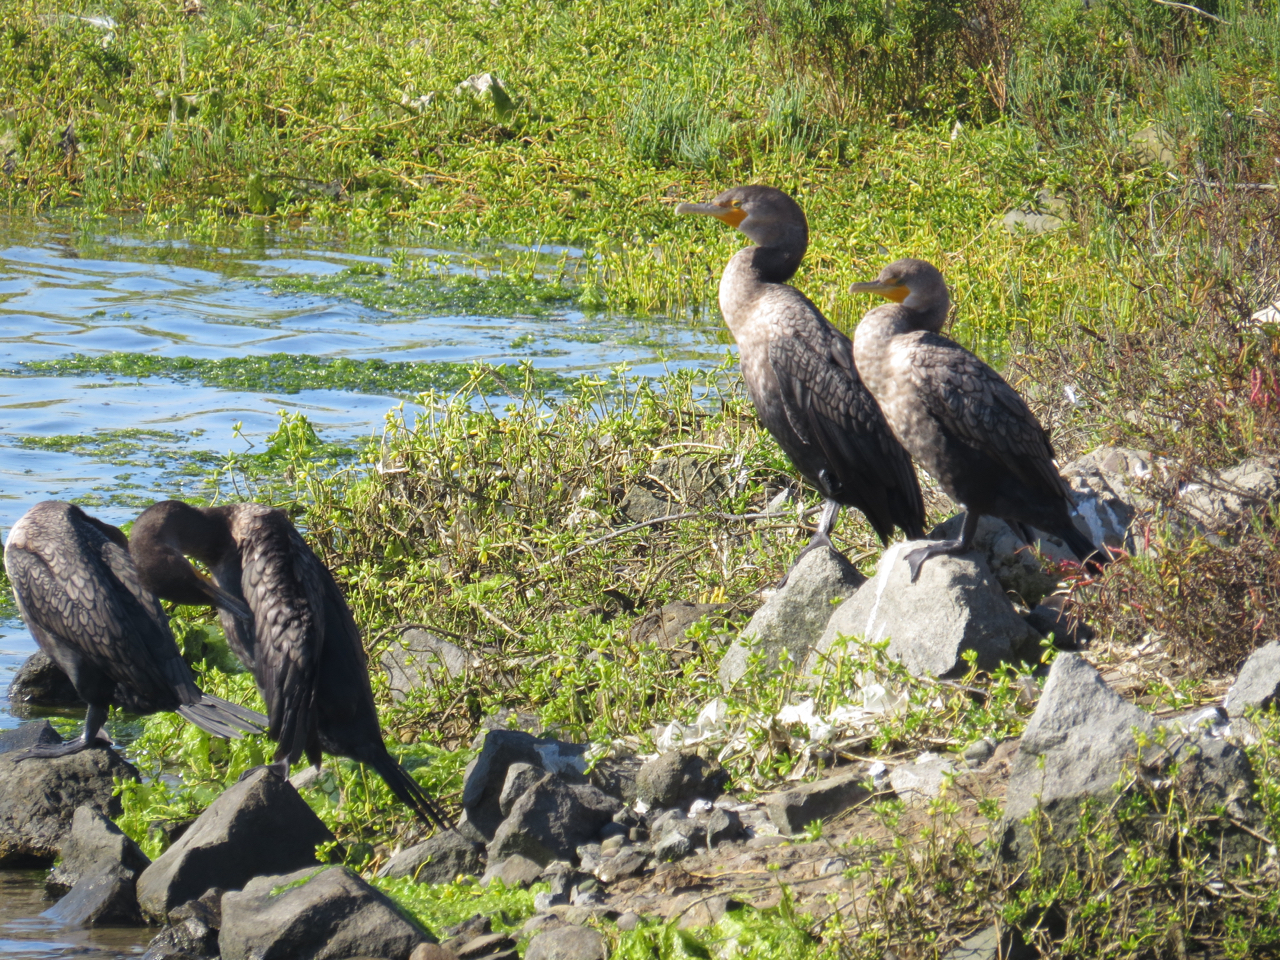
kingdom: Animalia
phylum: Chordata
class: Aves
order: Suliformes
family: Phalacrocoracidae
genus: Phalacrocorax
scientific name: Phalacrocorax auritus
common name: Double-crested cormorant
